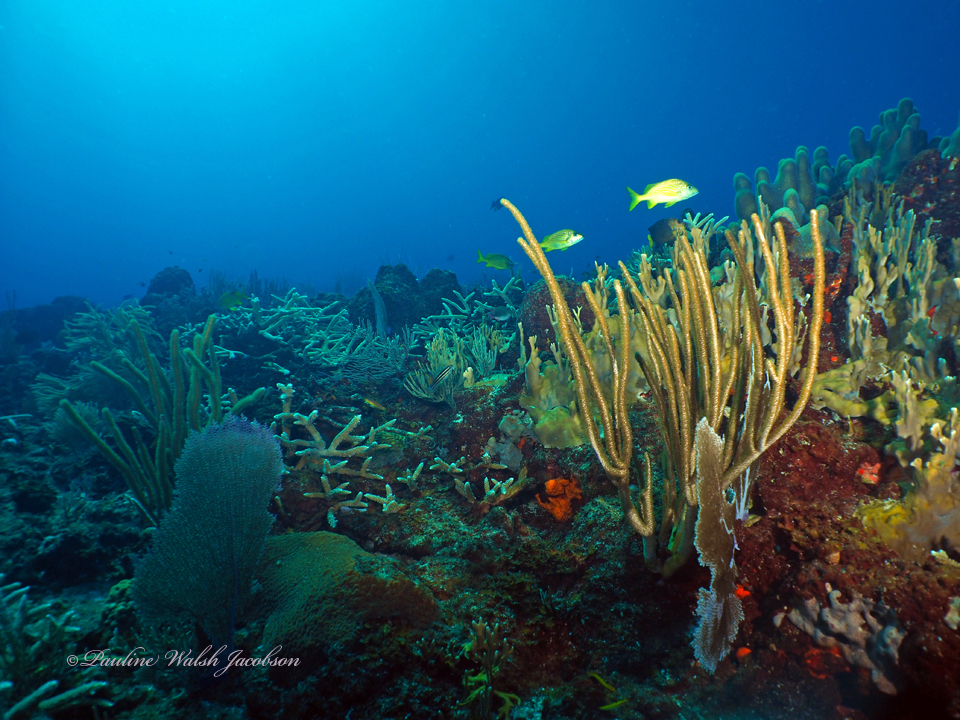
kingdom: Animalia
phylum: Cnidaria
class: Anthozoa
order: Scleractinia
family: Acroporidae
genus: Acropora
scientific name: Acropora cervicornis
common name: Staghorn coral
